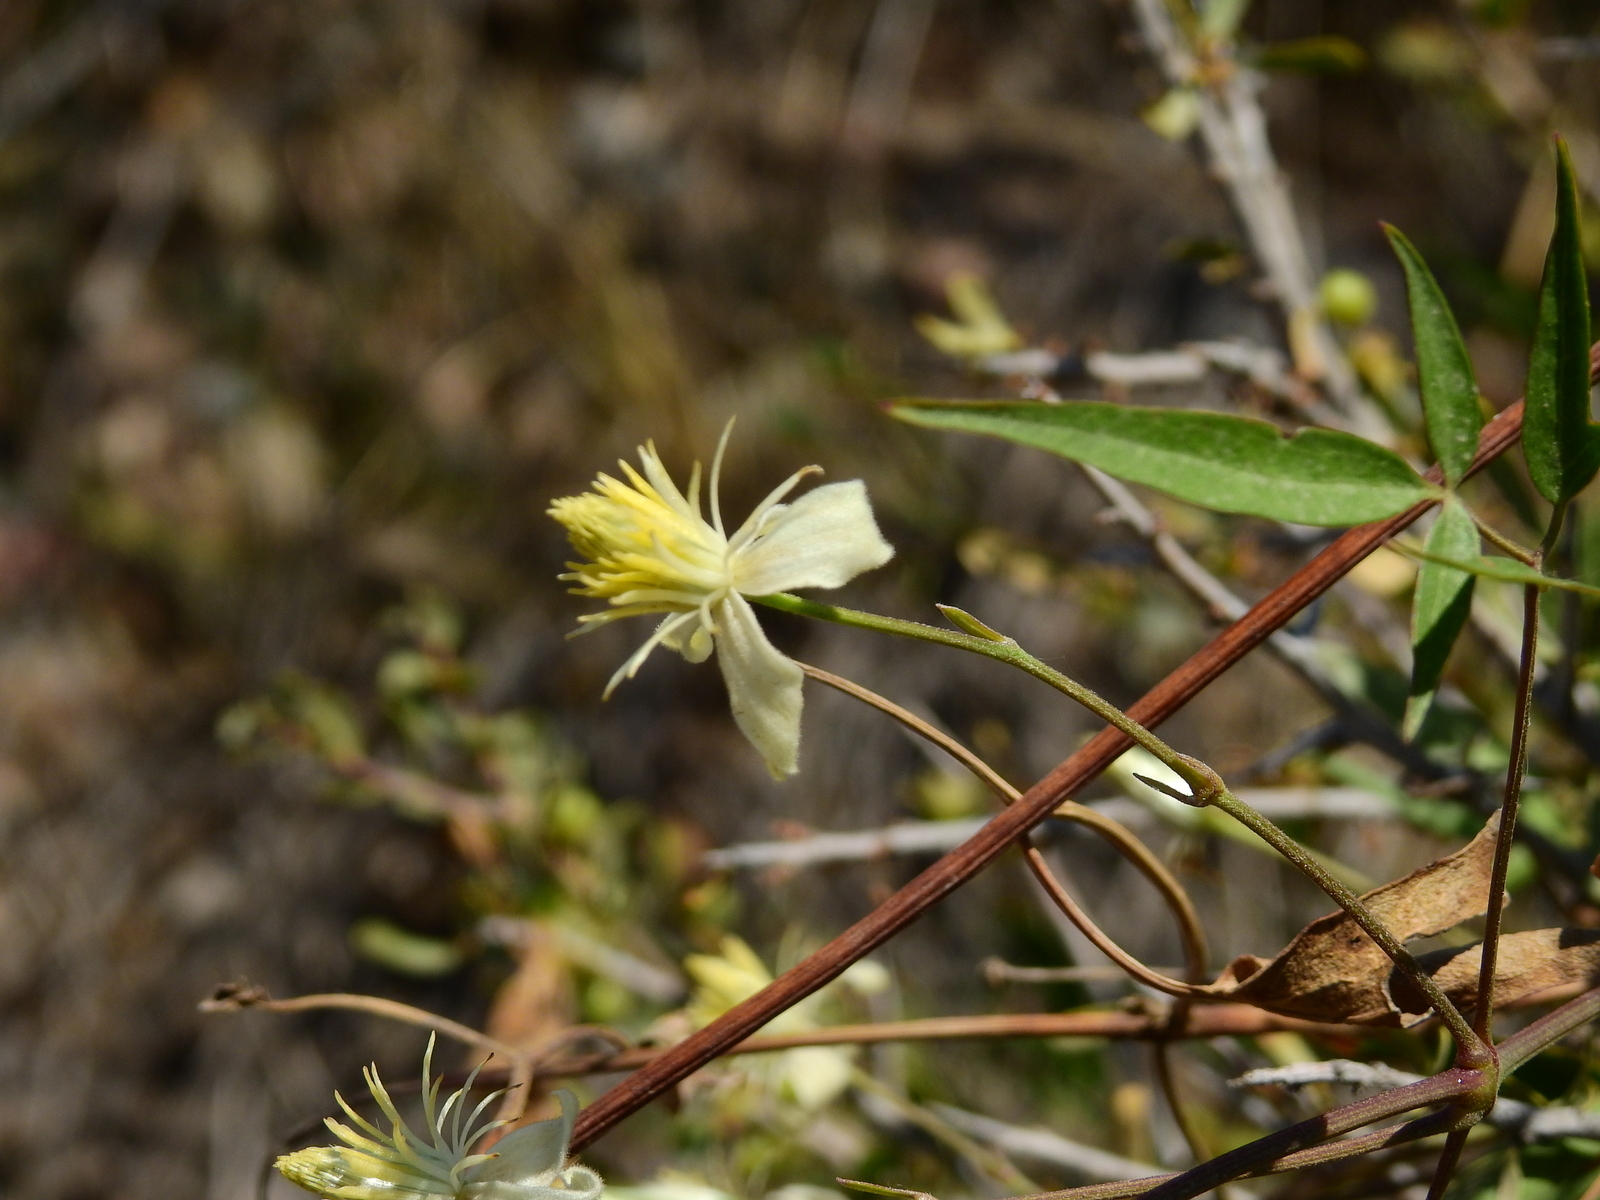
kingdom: Plantae
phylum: Tracheophyta
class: Magnoliopsida
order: Ranunculales
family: Ranunculaceae
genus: Clematis
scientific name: Clematis montevidensis
